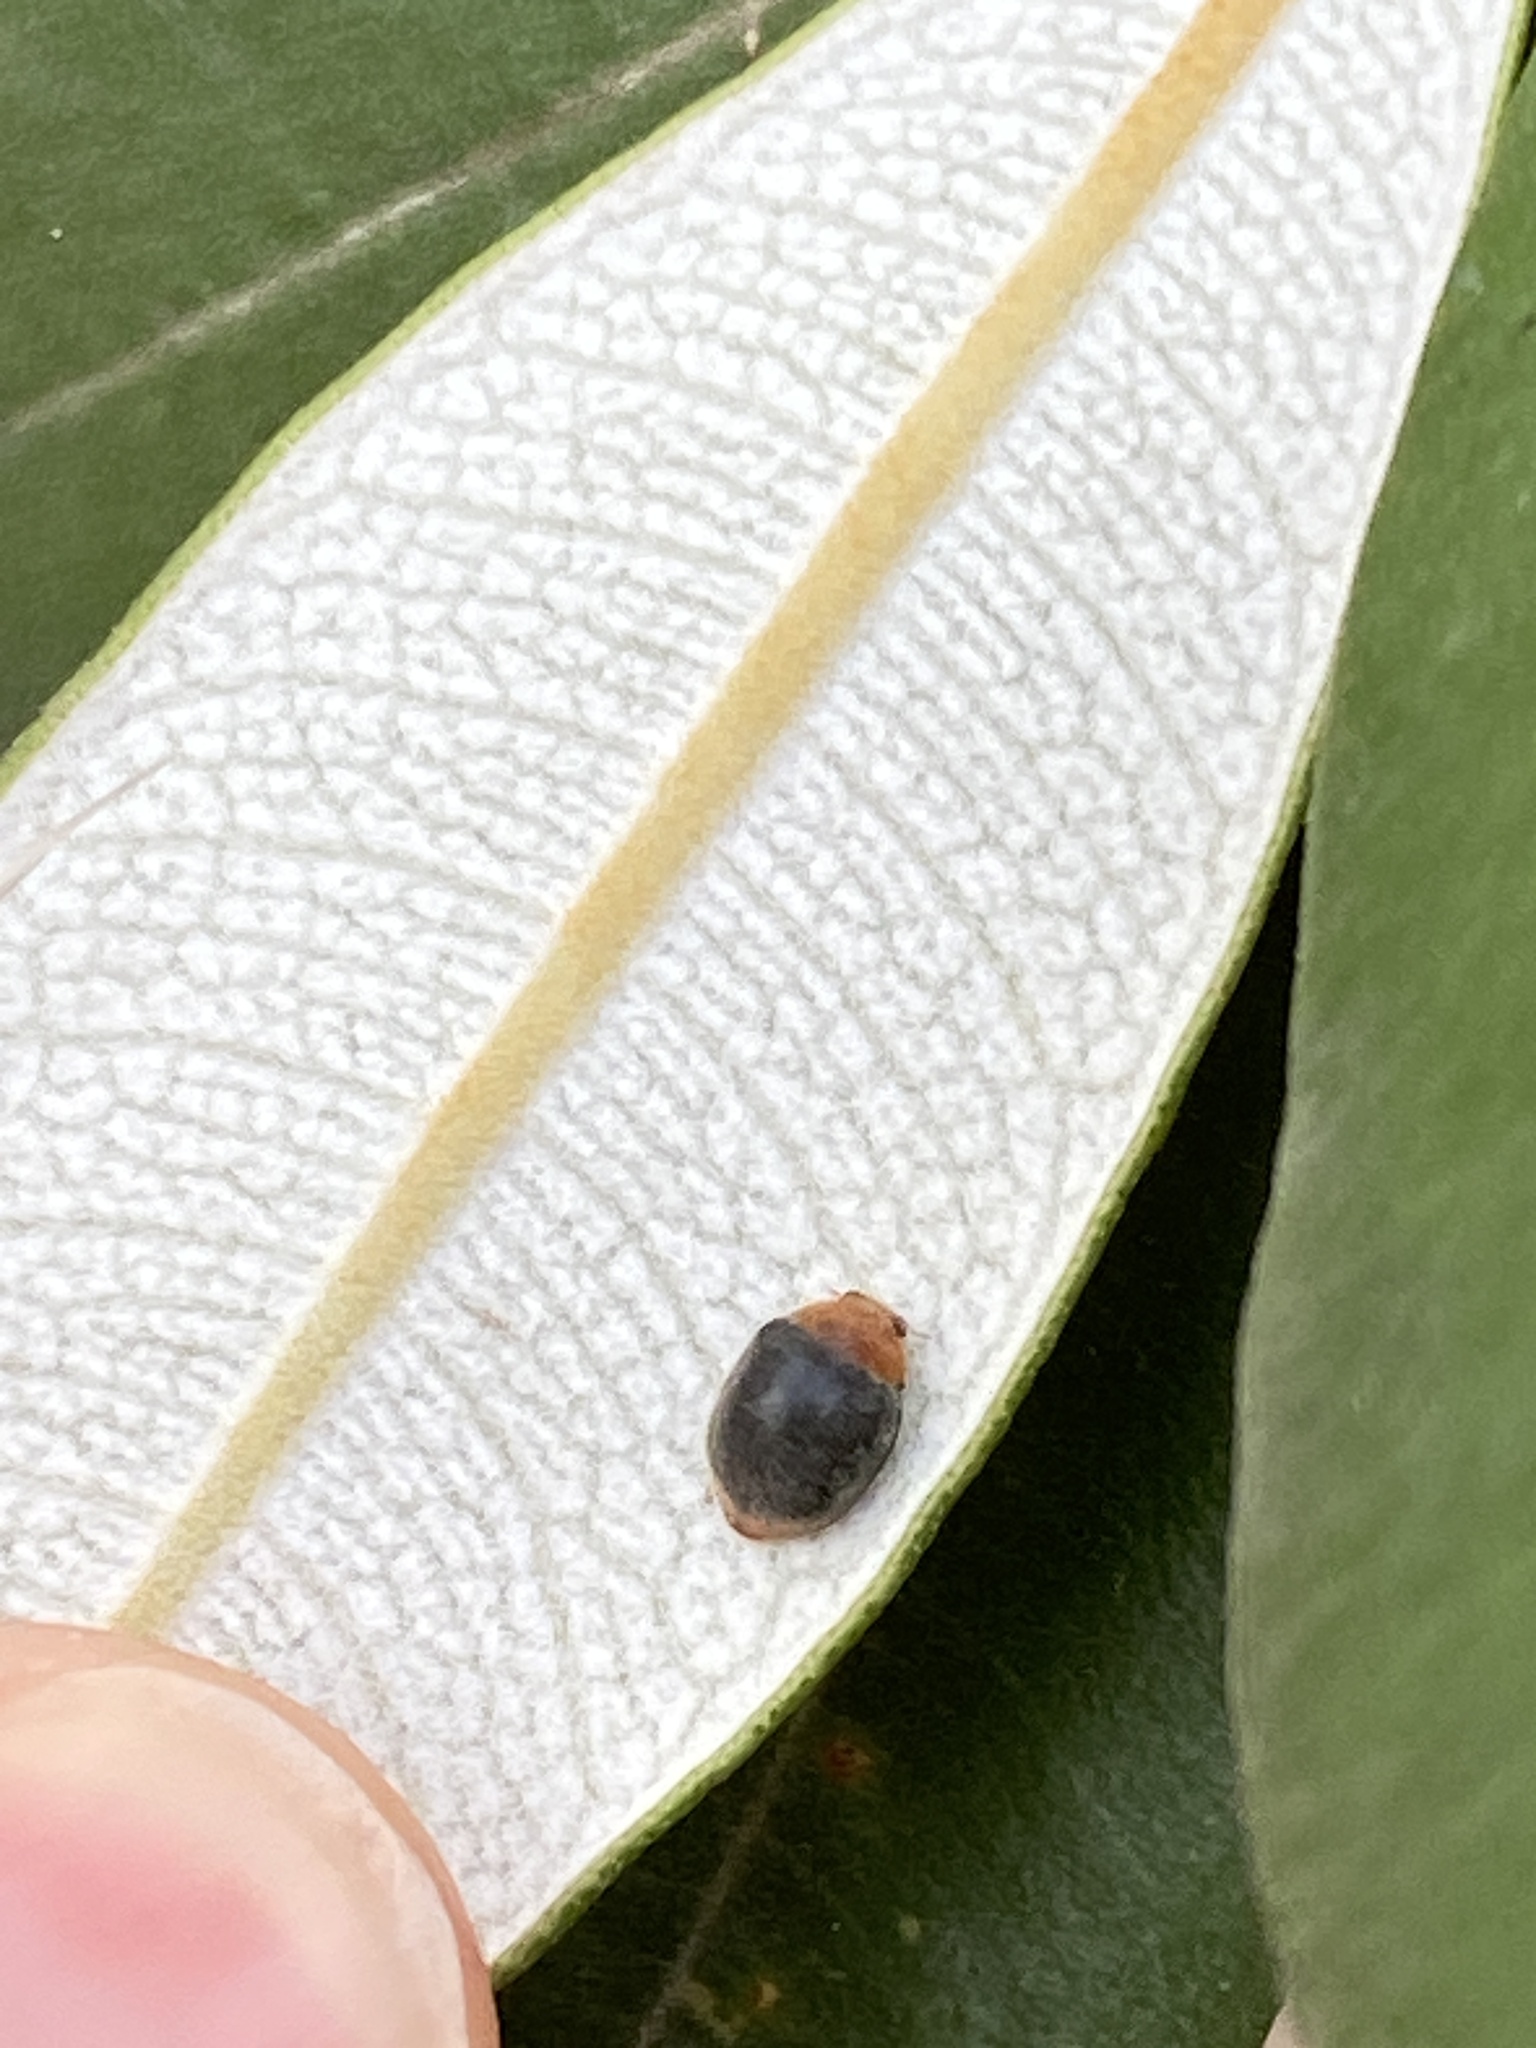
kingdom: Animalia
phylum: Arthropoda
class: Insecta
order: Coleoptera
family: Coccinellidae
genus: Cryptolaemus
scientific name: Cryptolaemus montrouzieri
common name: Mealybug destroyer
